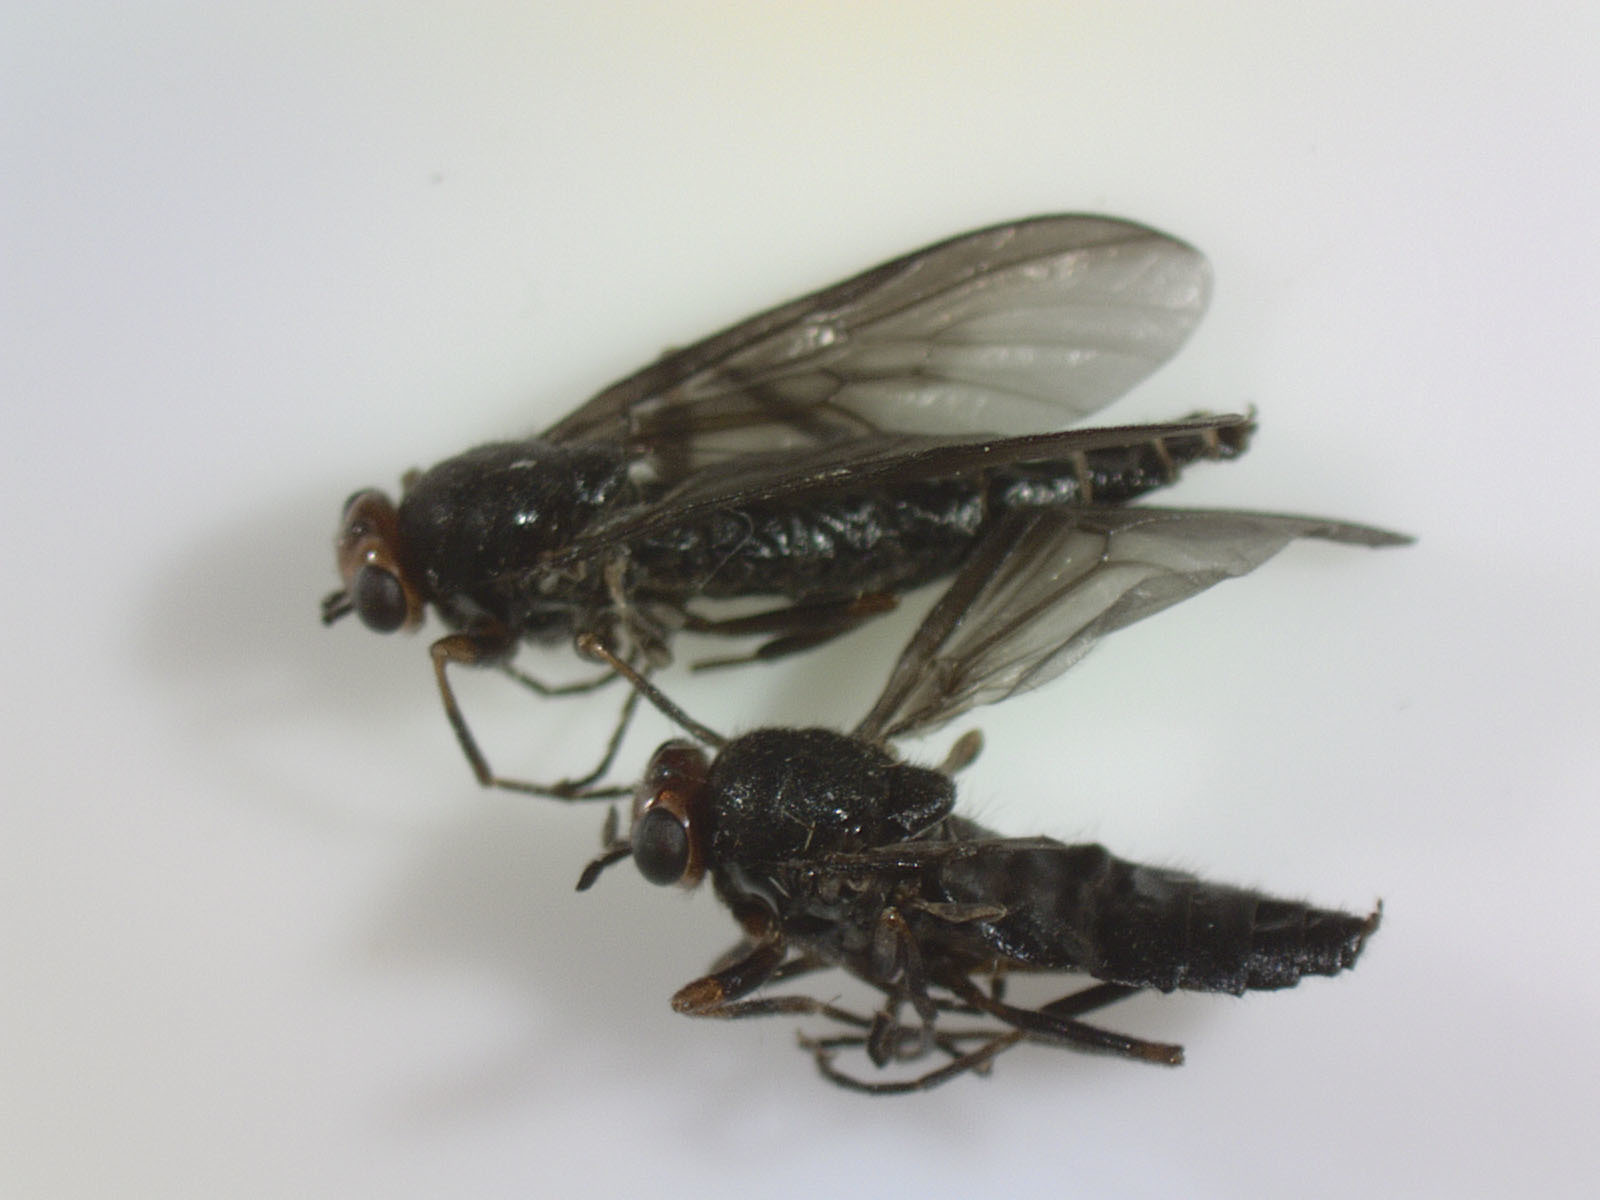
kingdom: Animalia
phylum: Arthropoda
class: Insecta
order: Diptera
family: Stratiomyidae
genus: Inopus
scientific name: Inopus rubriceps
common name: Soldier fly
